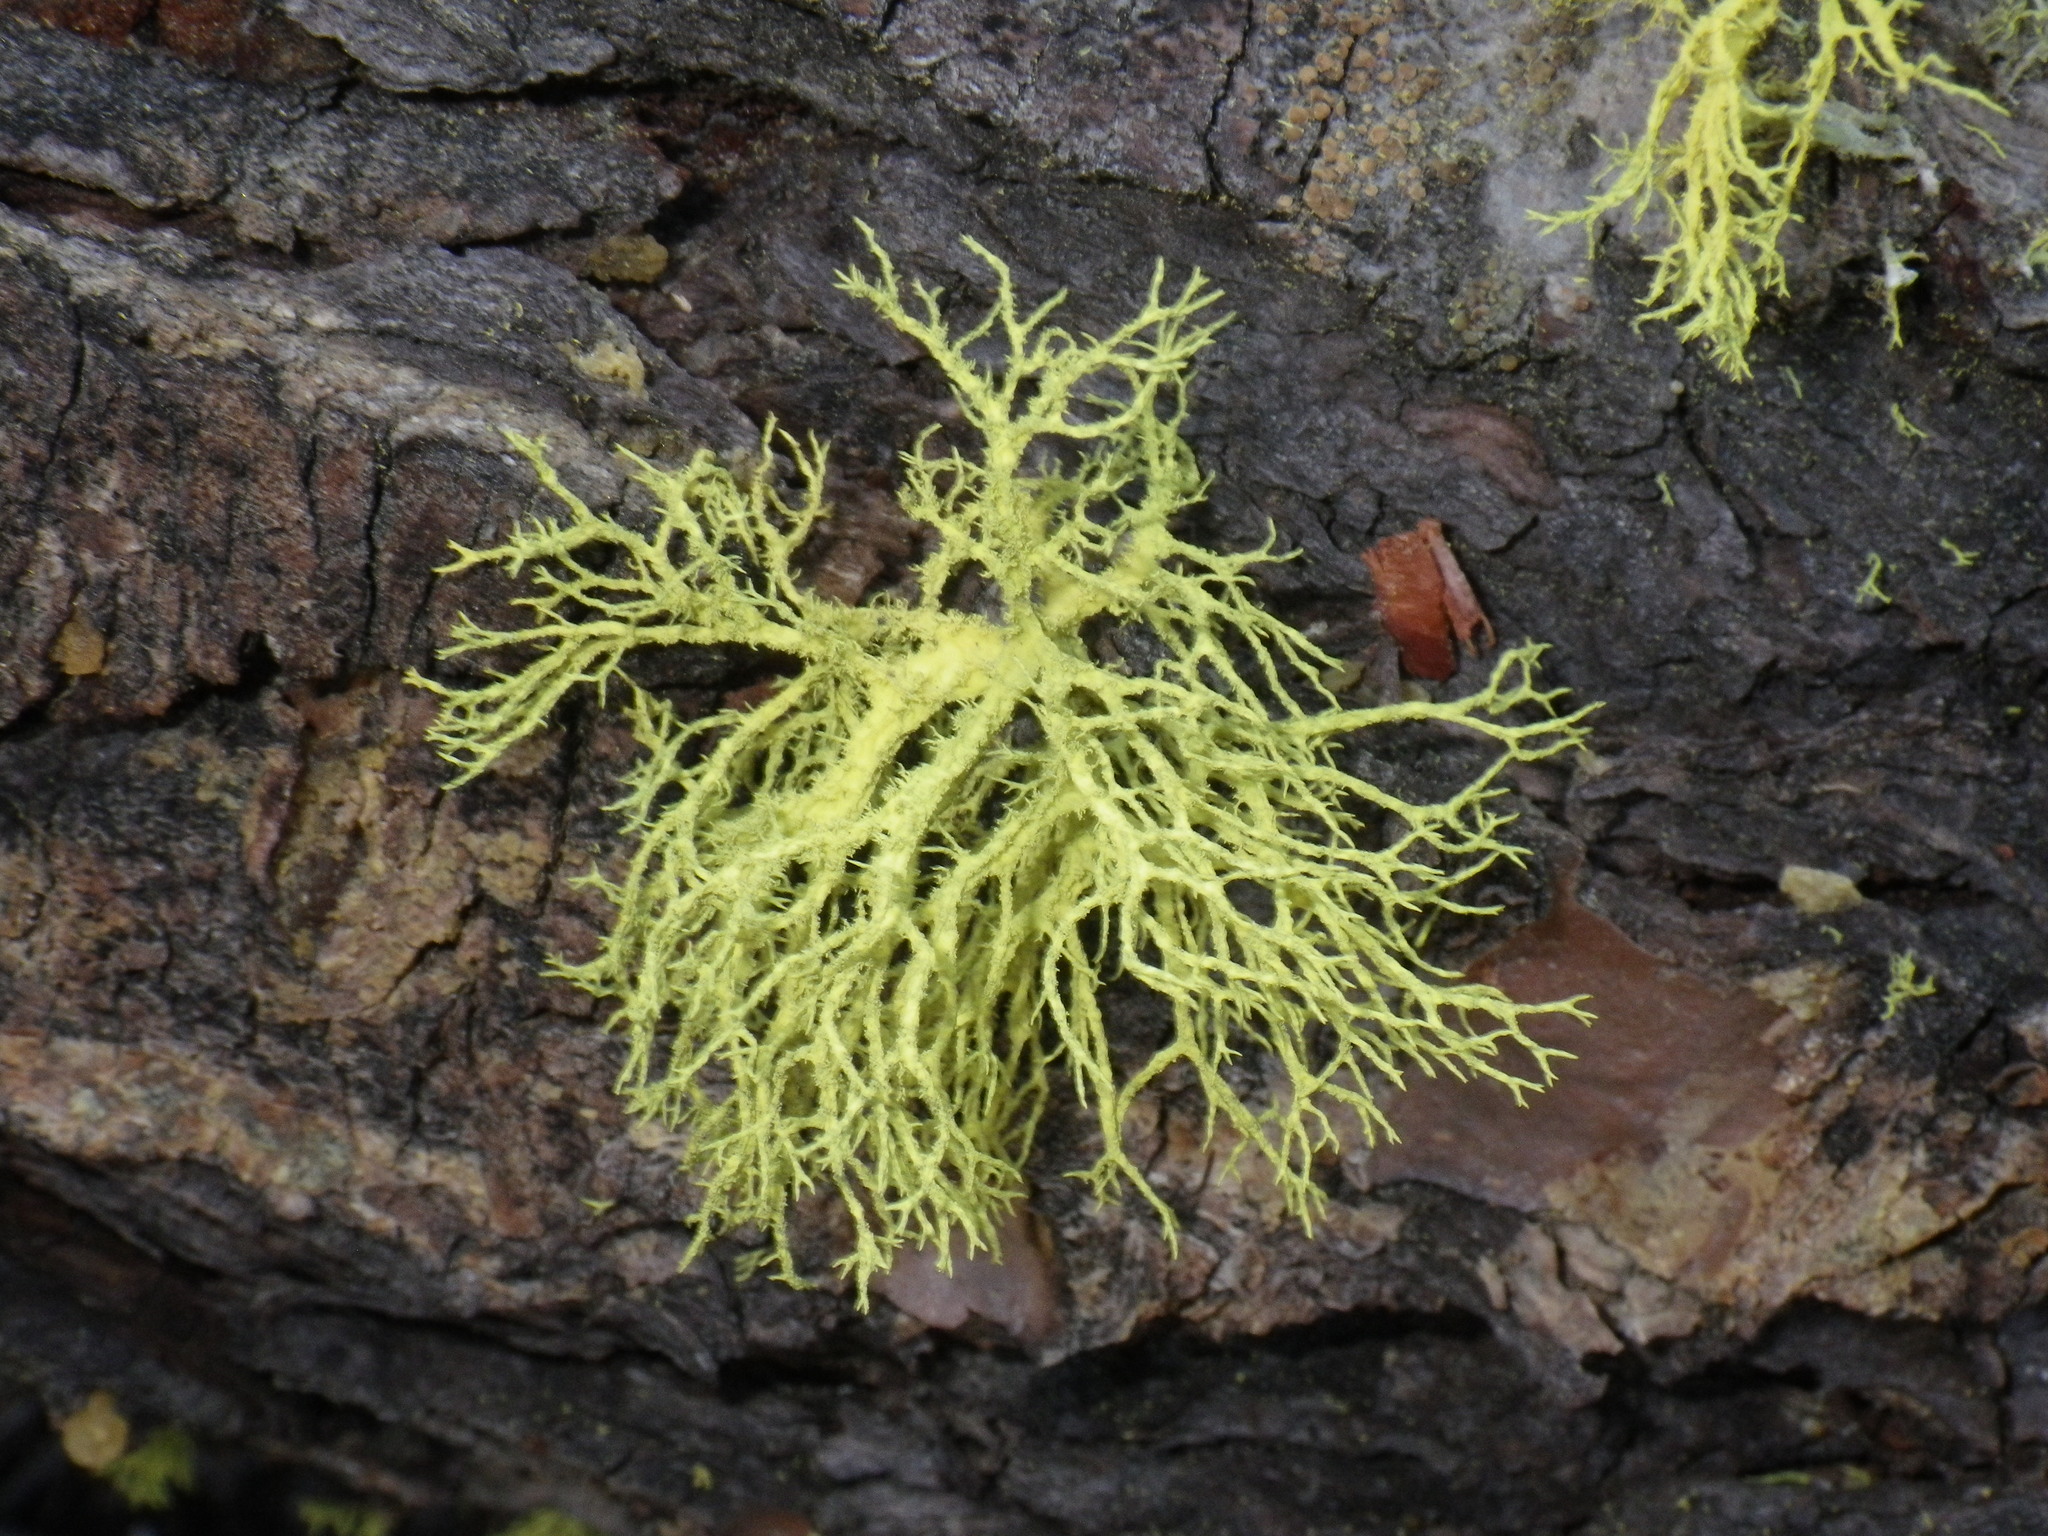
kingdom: Fungi
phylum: Ascomycota
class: Lecanoromycetes
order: Lecanorales
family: Parmeliaceae
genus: Letharia
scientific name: Letharia vulpina
